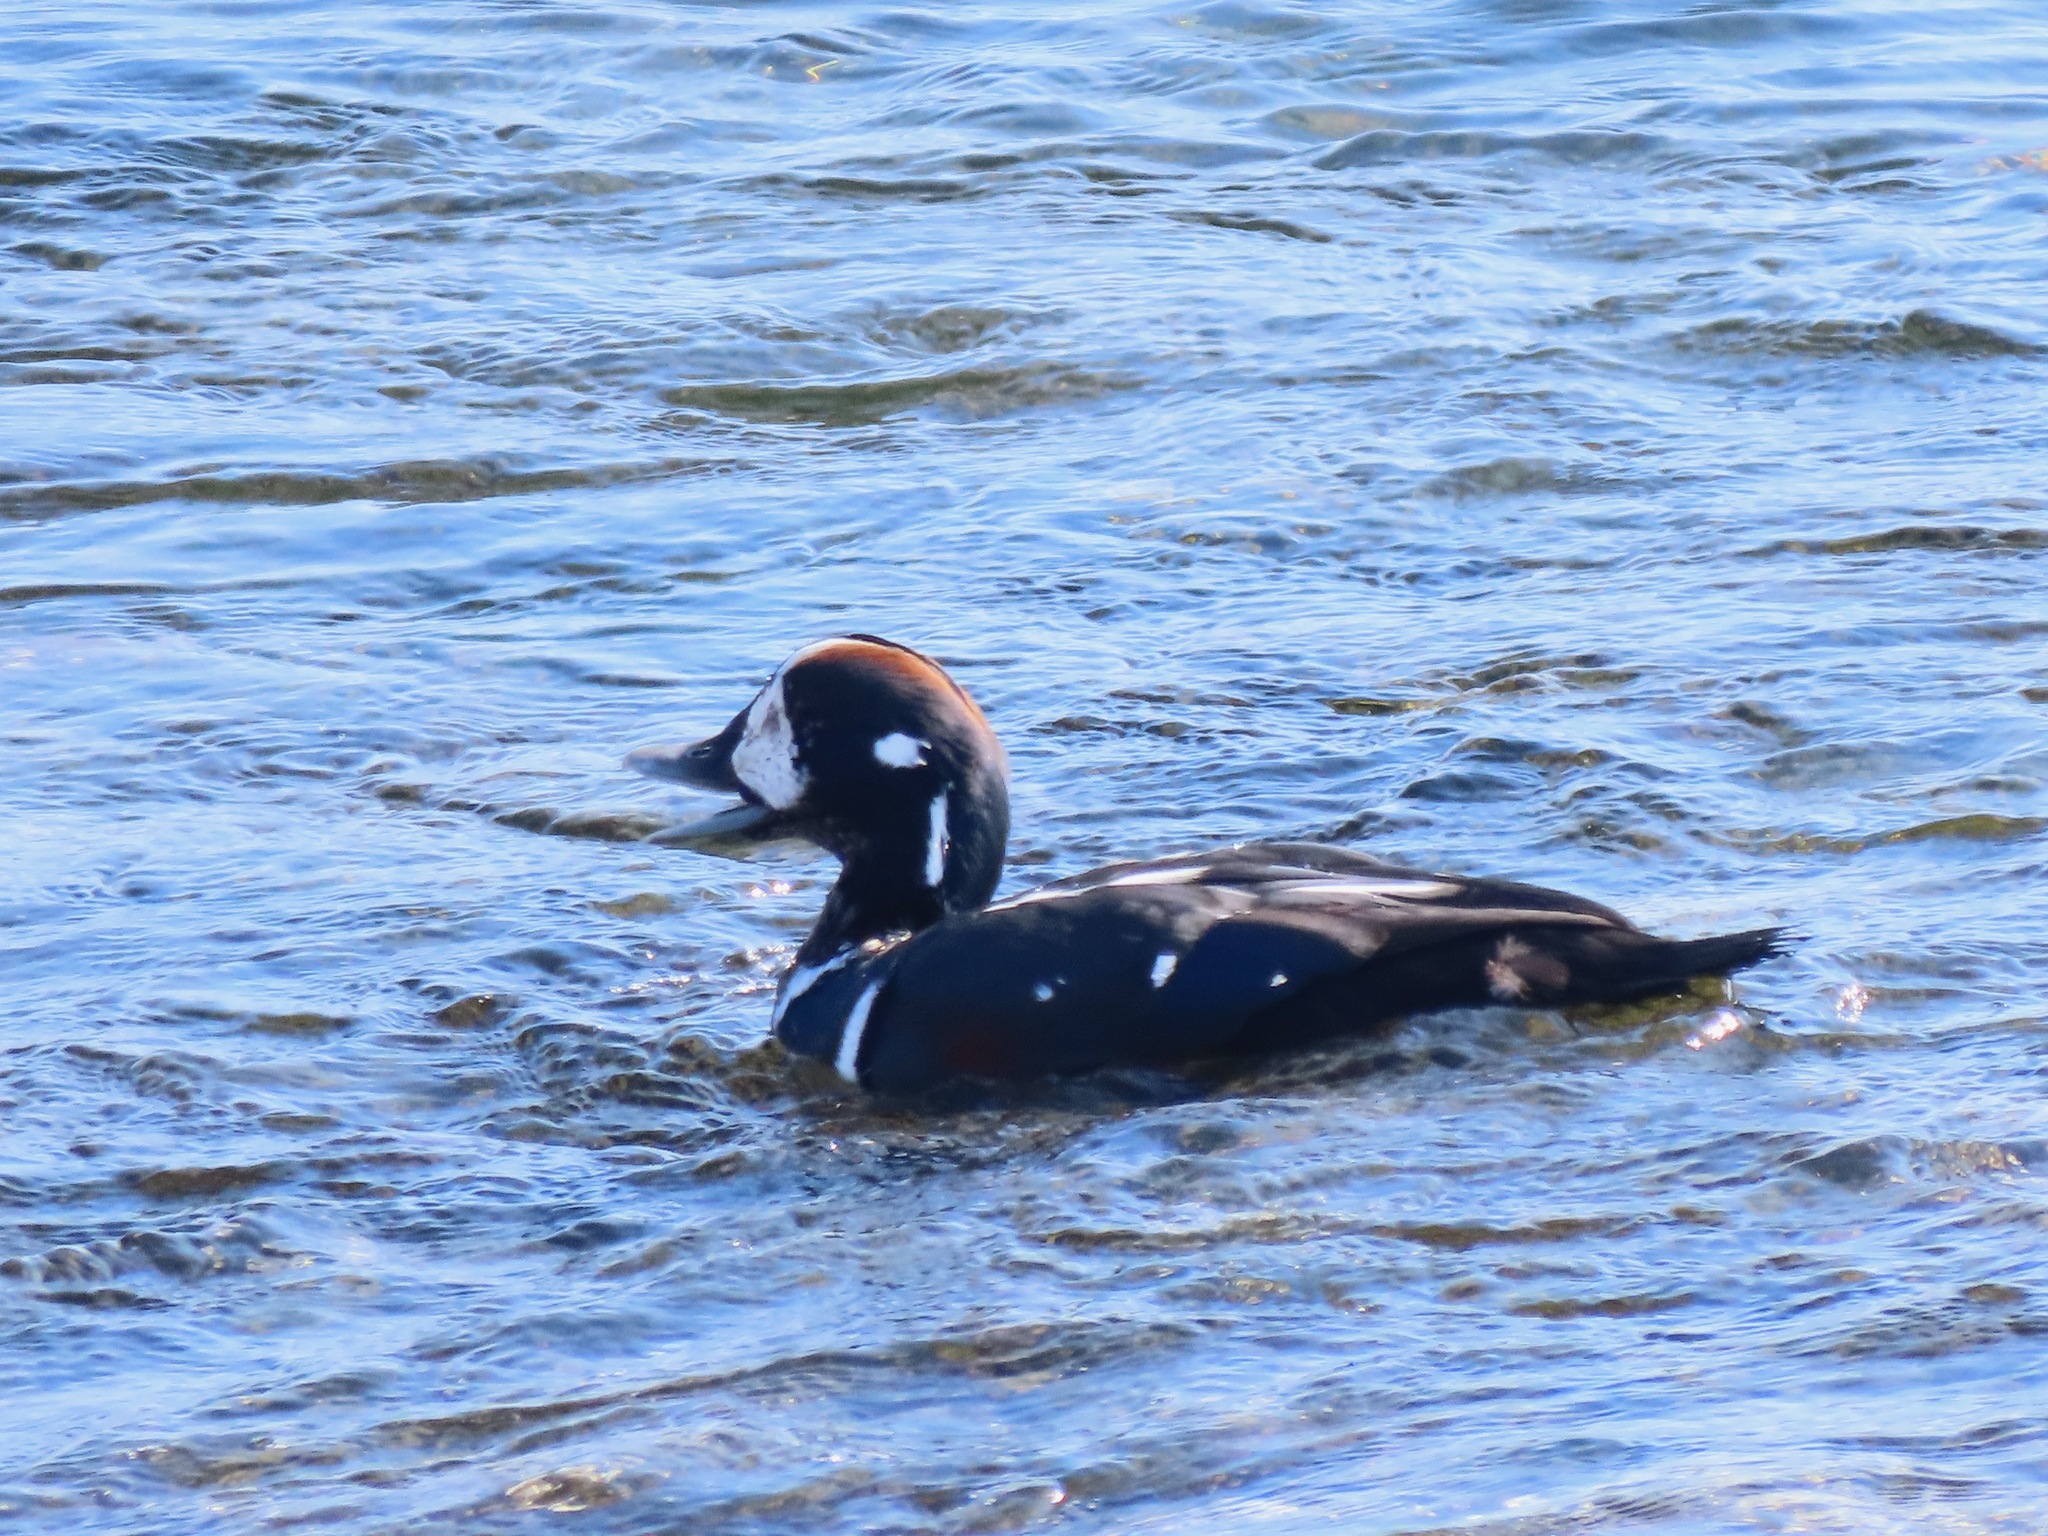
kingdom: Animalia
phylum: Chordata
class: Aves
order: Anseriformes
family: Anatidae
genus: Histrionicus
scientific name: Histrionicus histrionicus
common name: Harlequin duck
